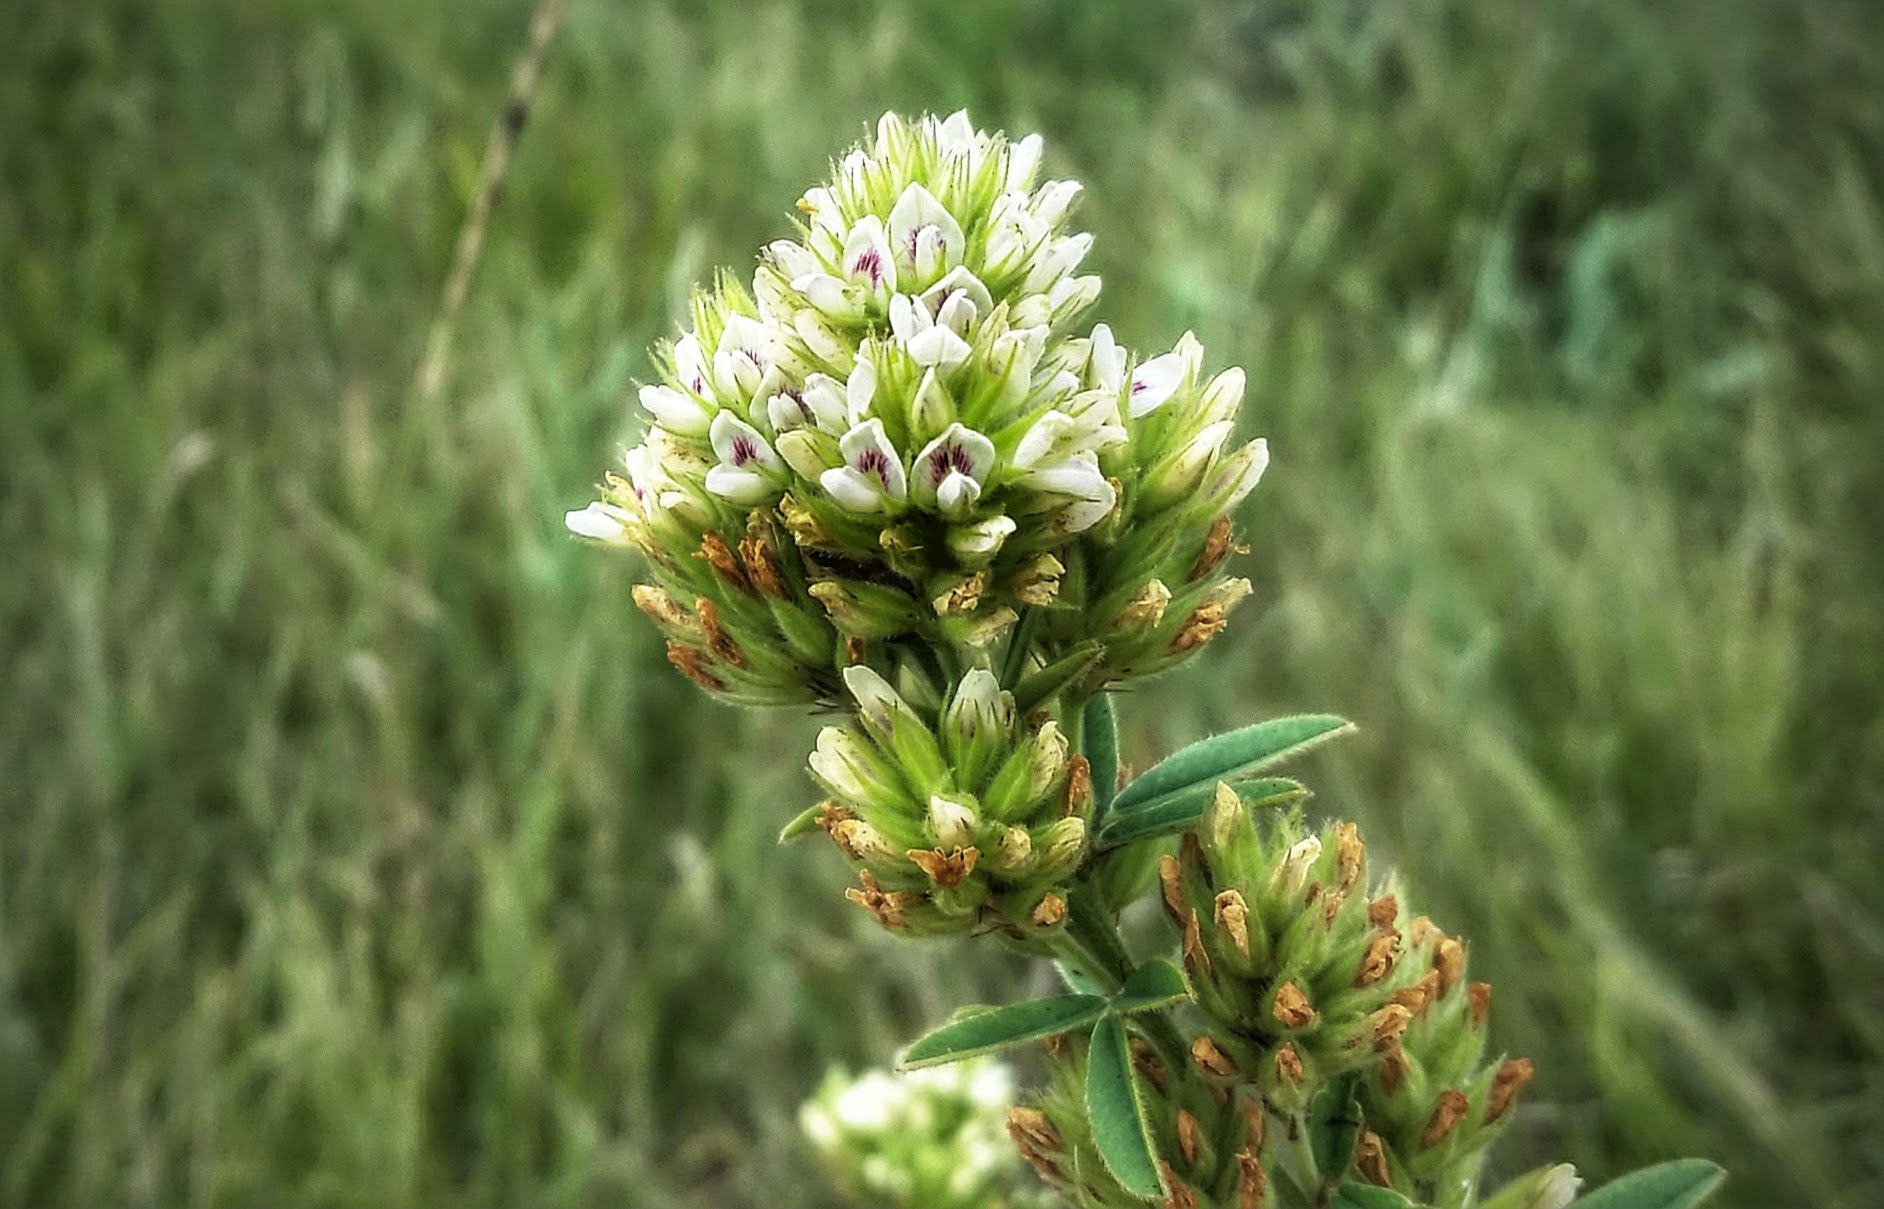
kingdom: Plantae
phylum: Tracheophyta
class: Magnoliopsida
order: Fabales
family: Fabaceae
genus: Lespedeza
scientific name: Lespedeza capitata
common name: Dusty clover
